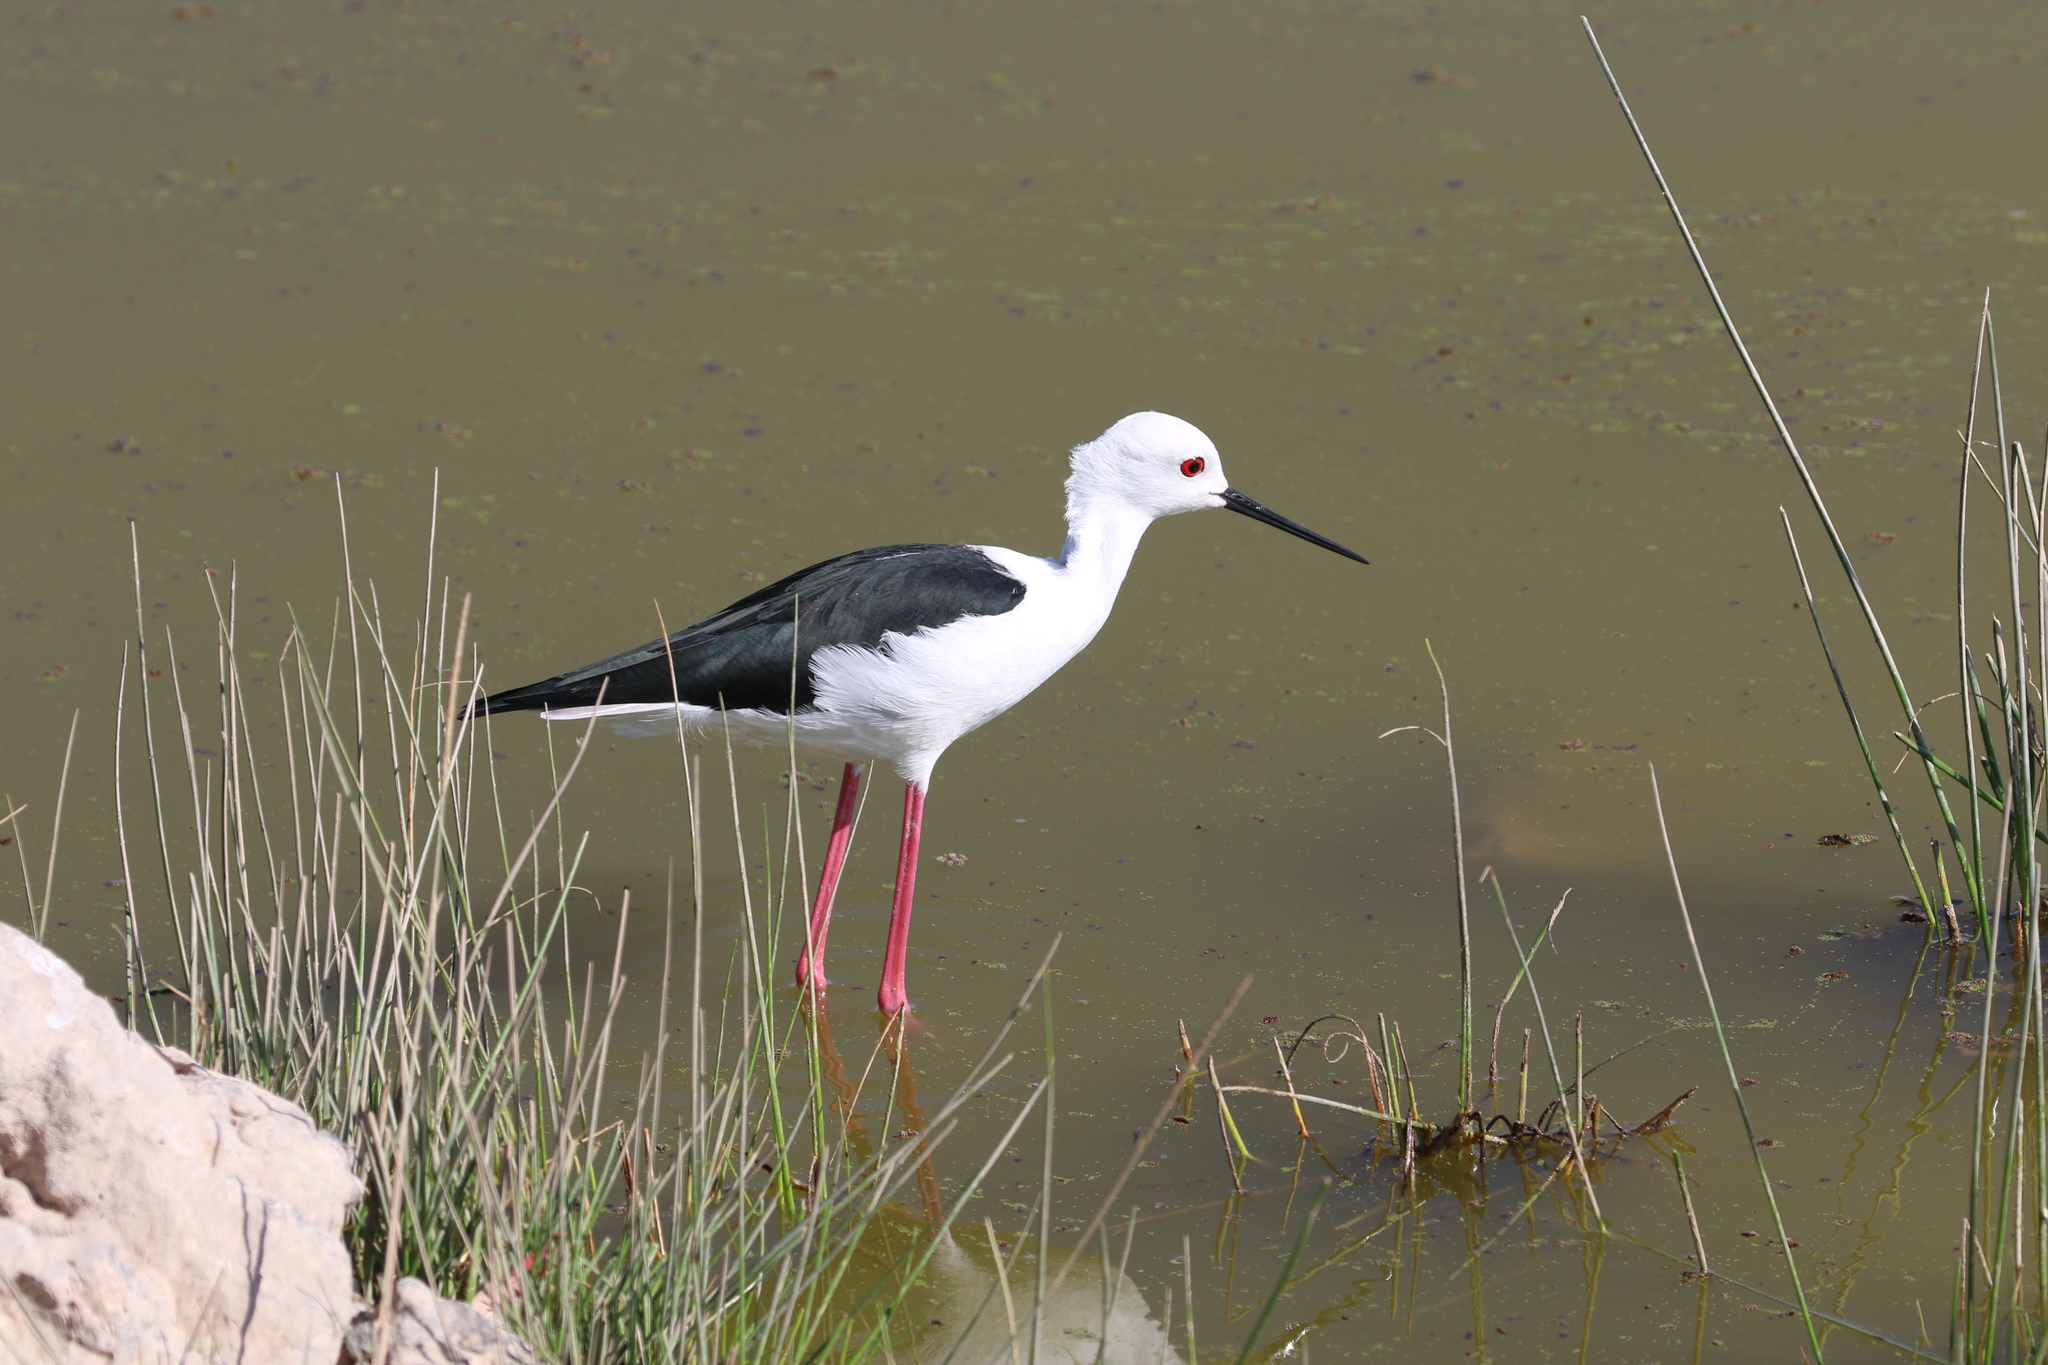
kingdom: Animalia
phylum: Chordata
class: Aves
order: Charadriiformes
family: Recurvirostridae
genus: Himantopus
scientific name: Himantopus himantopus
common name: Black-winged stilt
